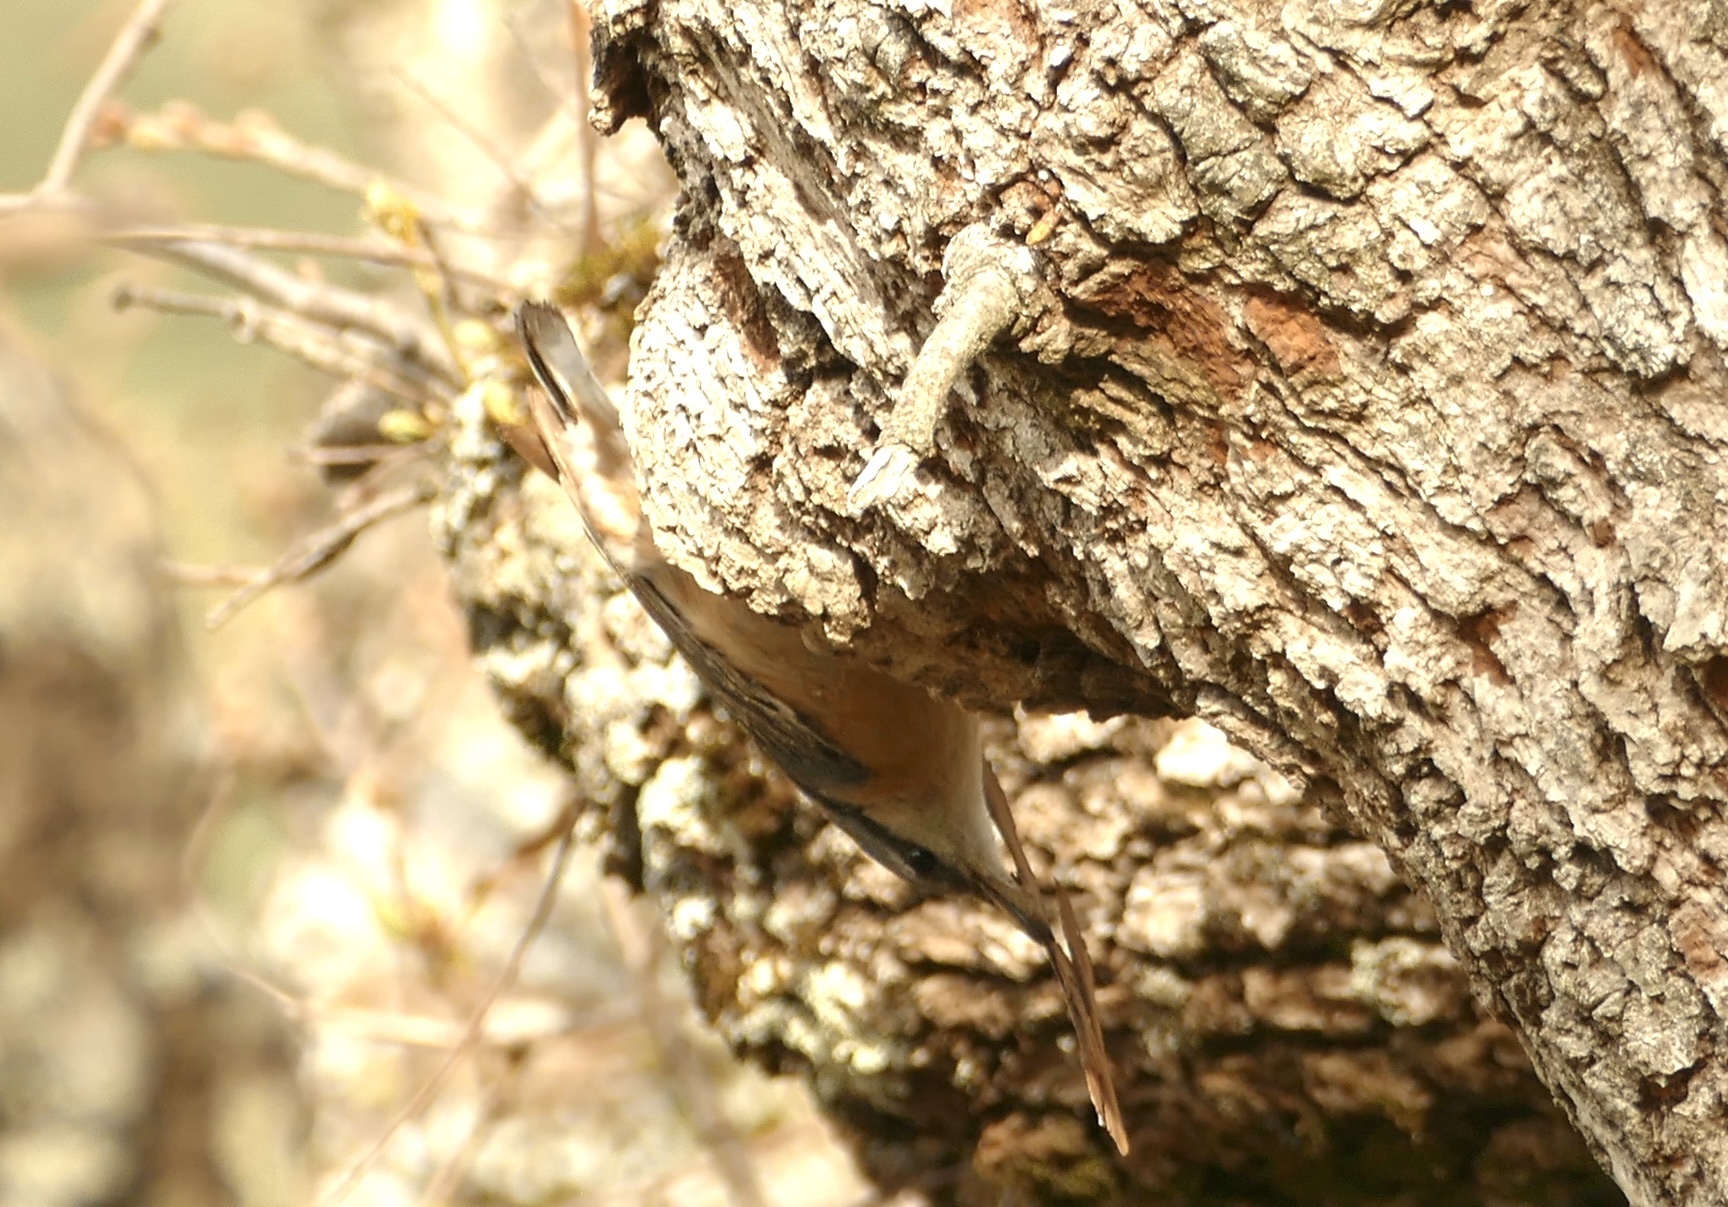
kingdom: Animalia
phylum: Chordata
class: Aves
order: Passeriformes
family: Sittidae
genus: Sitta
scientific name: Sitta europaea
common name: Eurasian nuthatch
